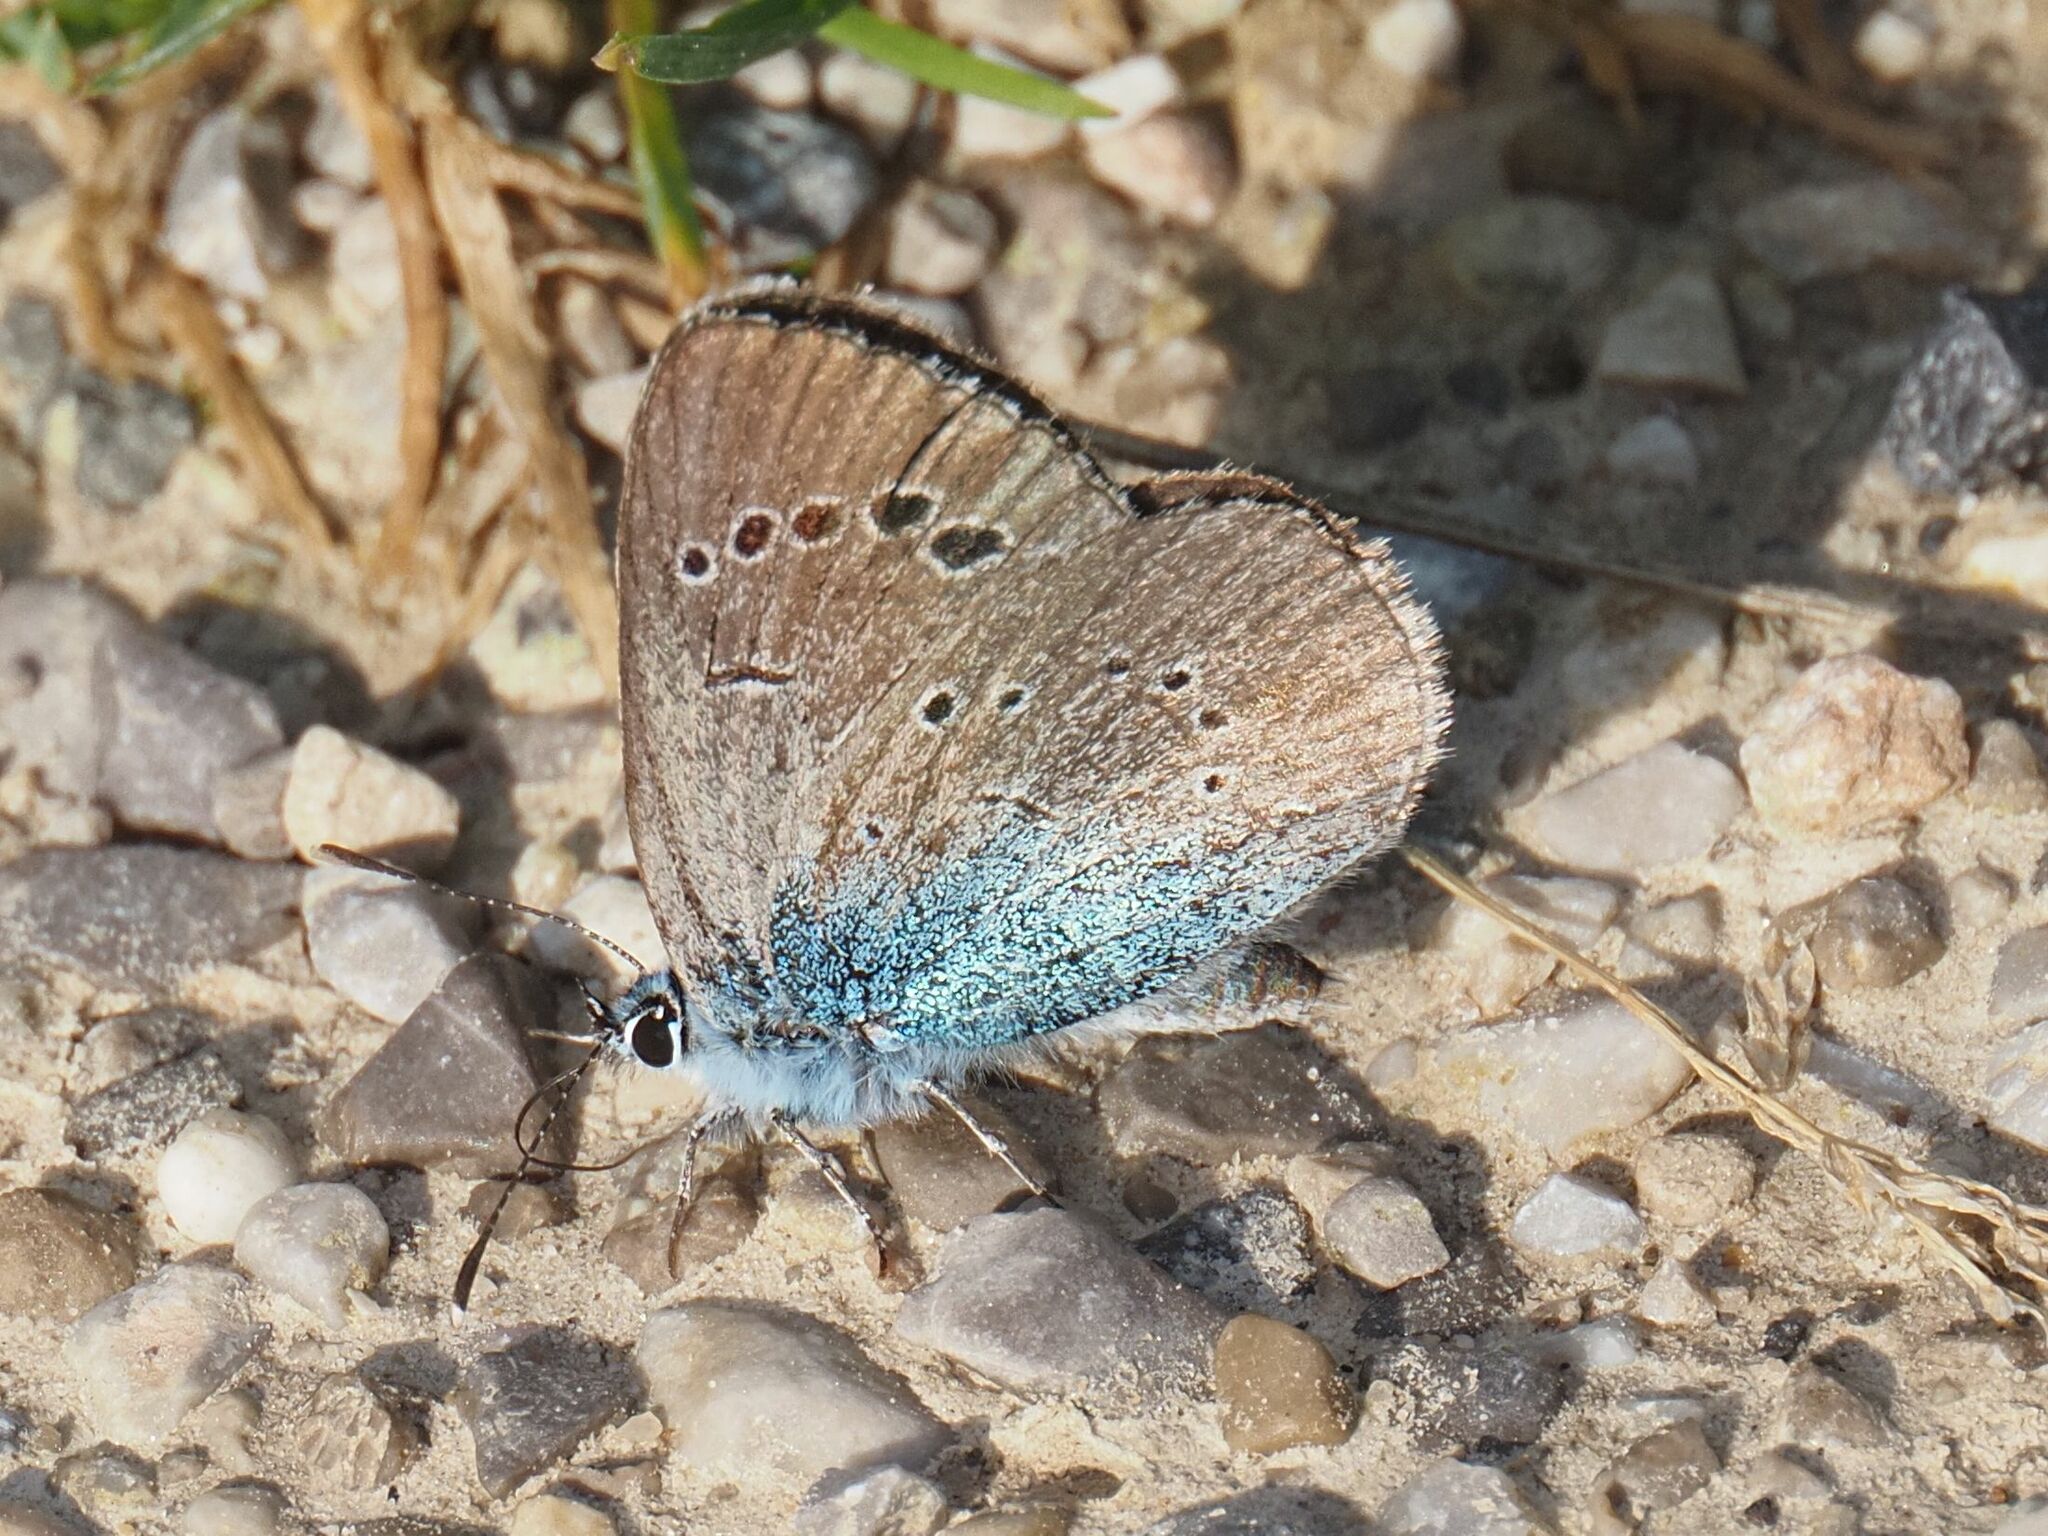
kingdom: Animalia
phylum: Arthropoda
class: Insecta
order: Lepidoptera
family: Lycaenidae
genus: Glaucopsyche
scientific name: Glaucopsyche alexis
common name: Green-underside blue
